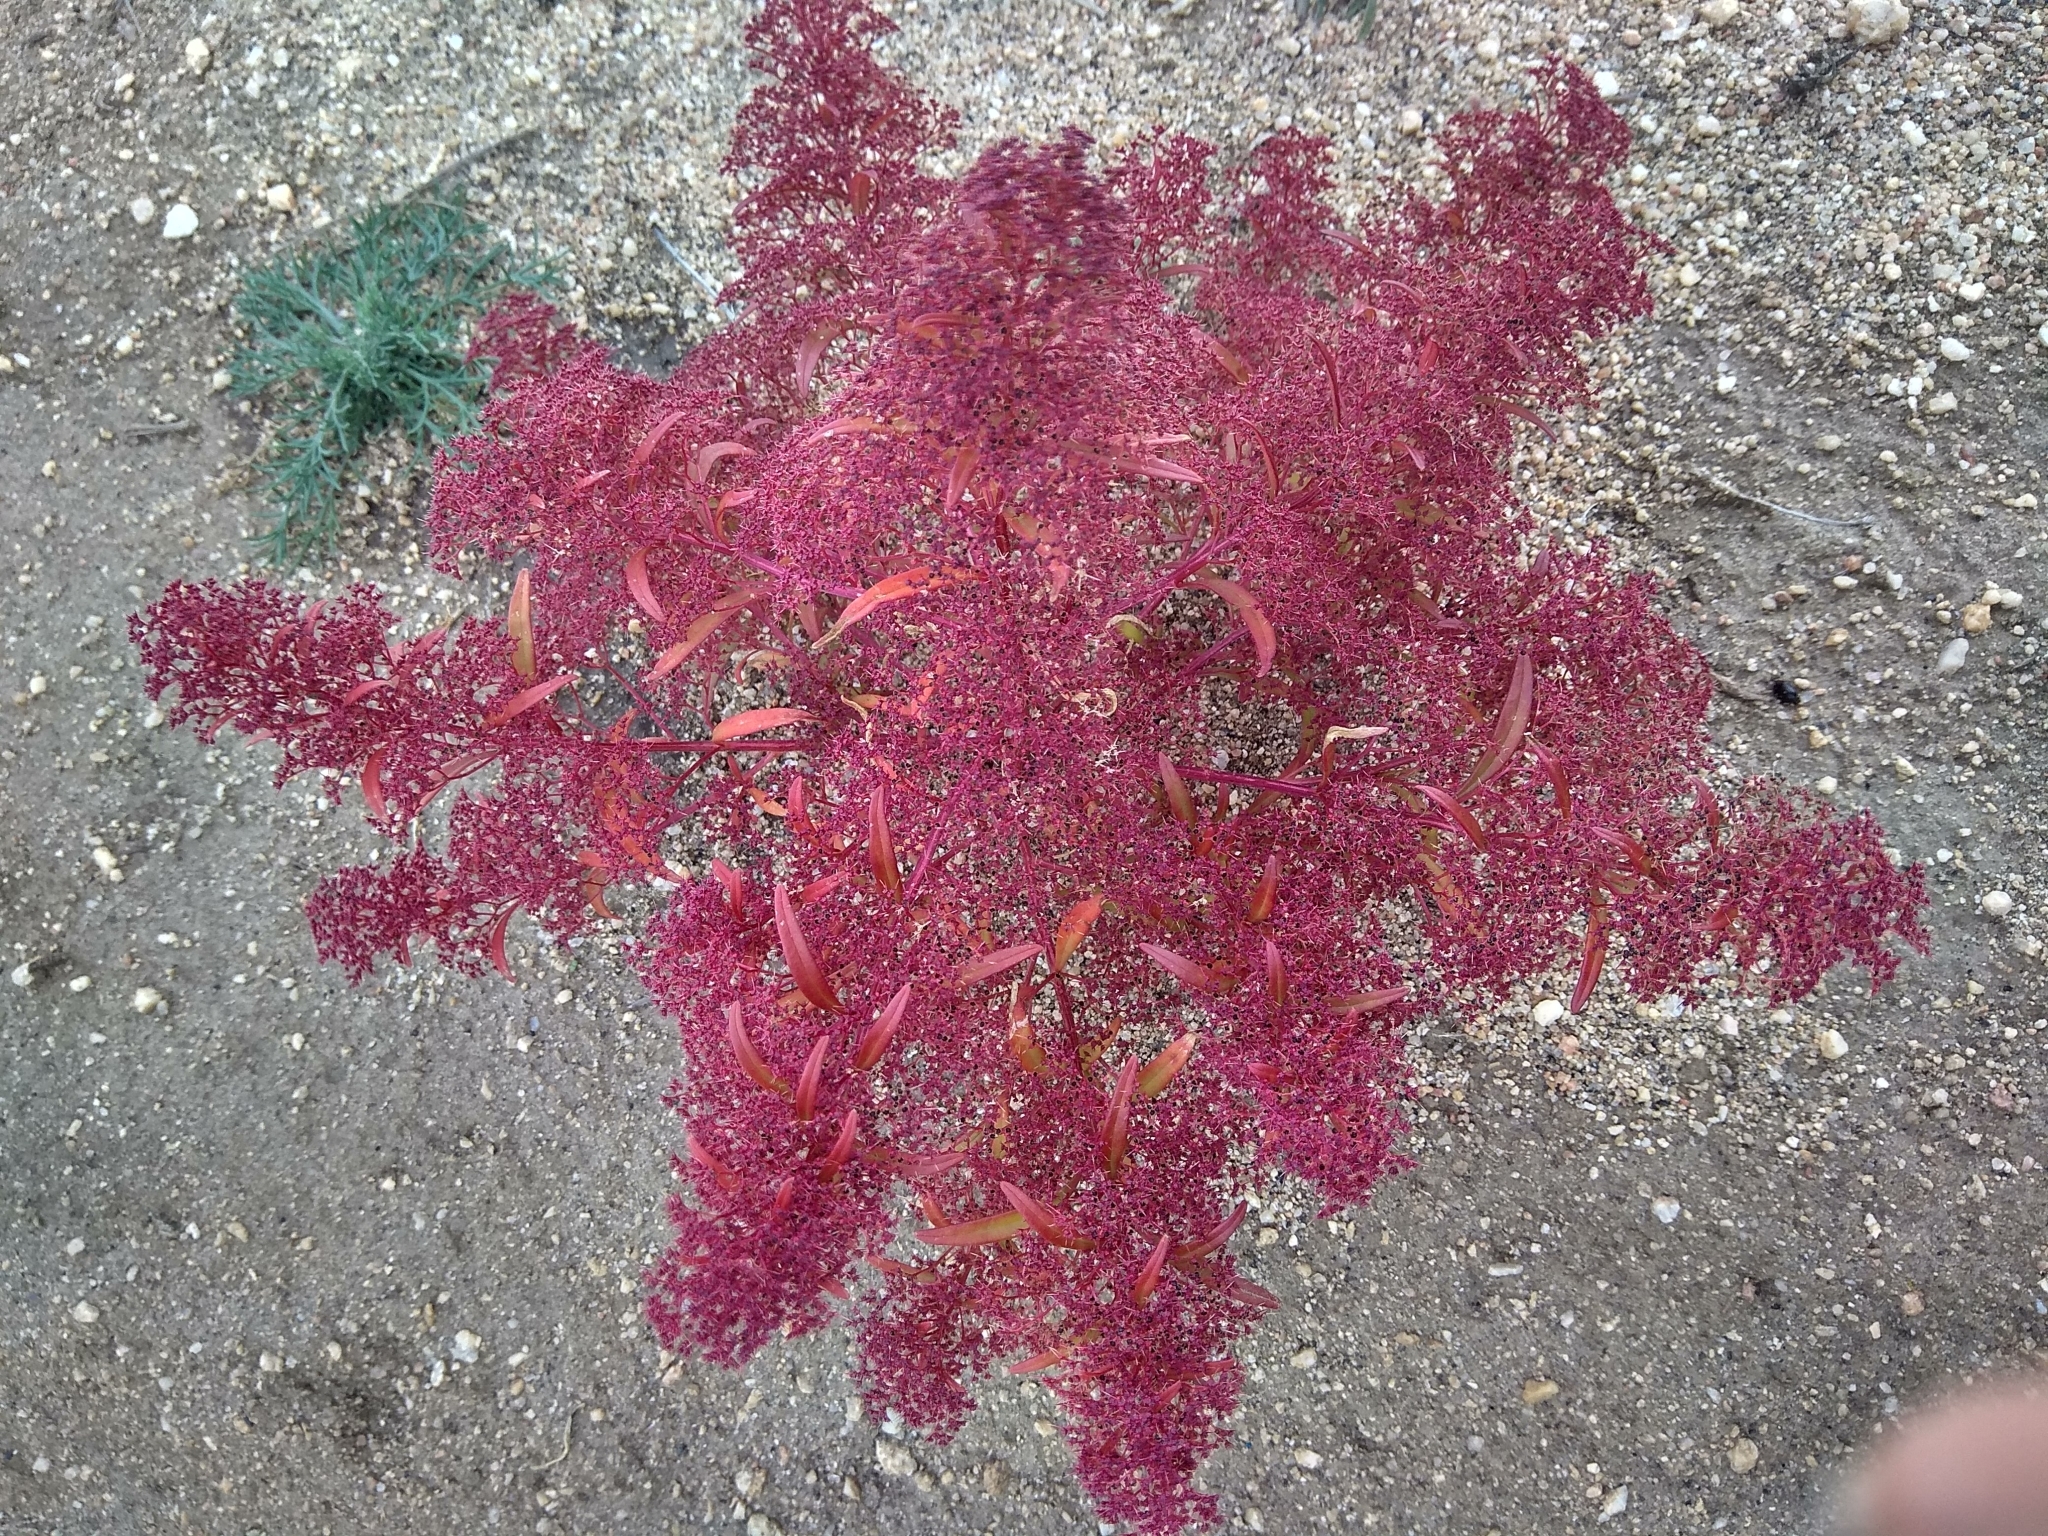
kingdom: Plantae
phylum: Tracheophyta
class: Magnoliopsida
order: Caryophyllales
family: Amaranthaceae
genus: Teloxys
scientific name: Teloxys aristata
